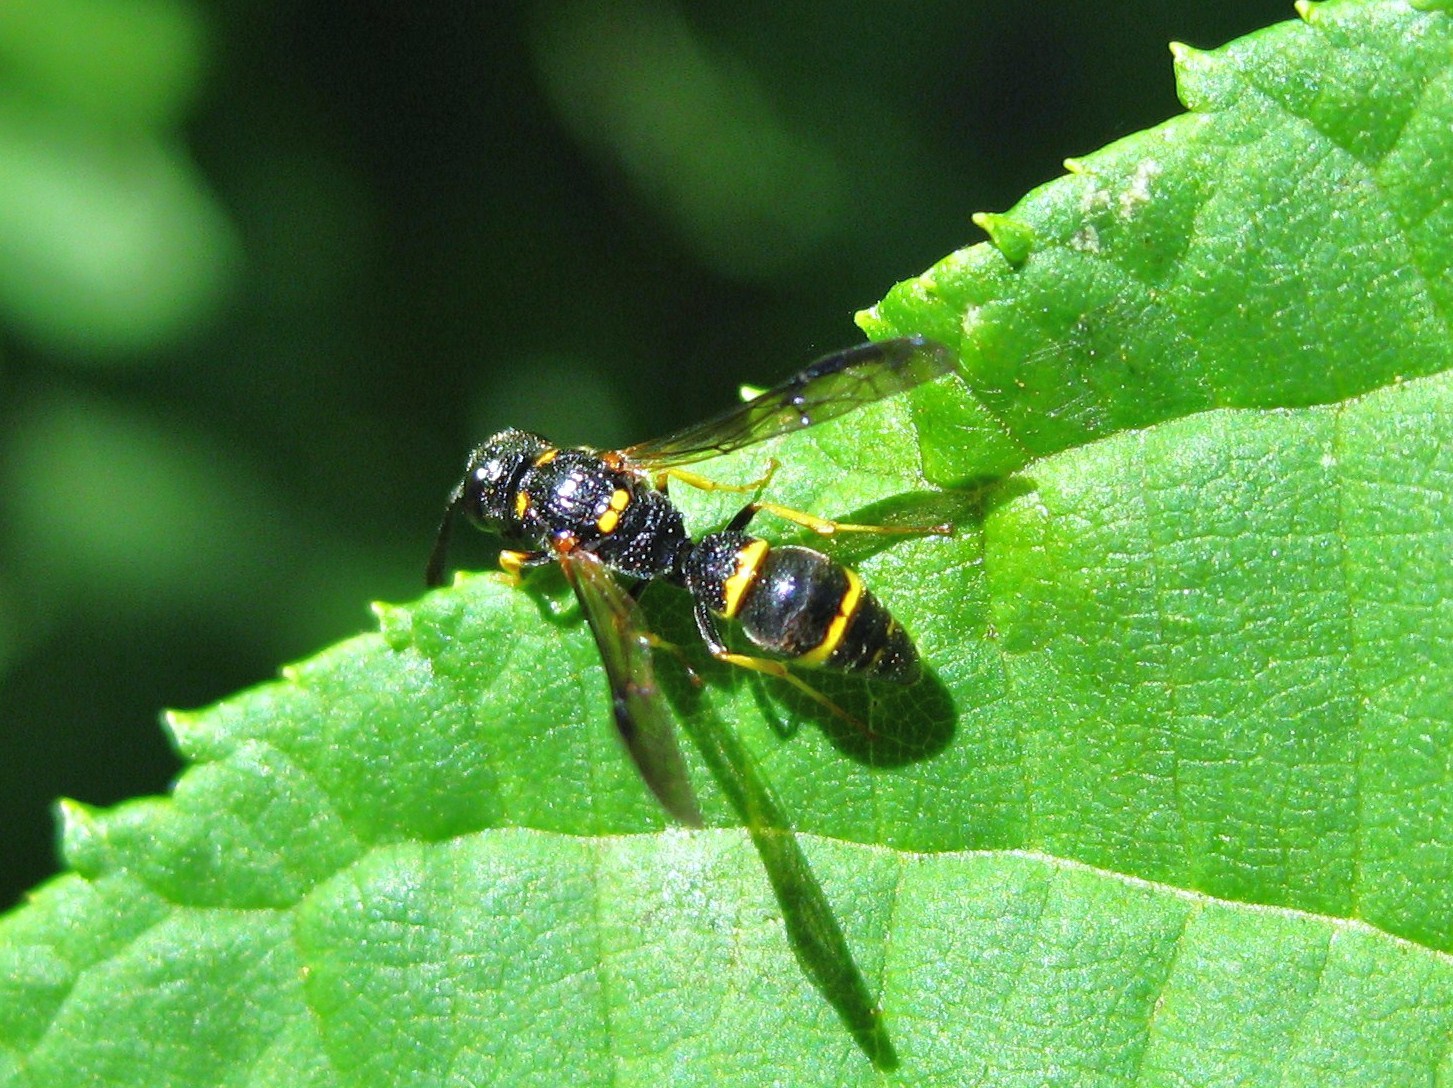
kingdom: Animalia
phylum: Arthropoda
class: Insecta
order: Hymenoptera
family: Eumenidae
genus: Symmorphus
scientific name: Symmorphus
